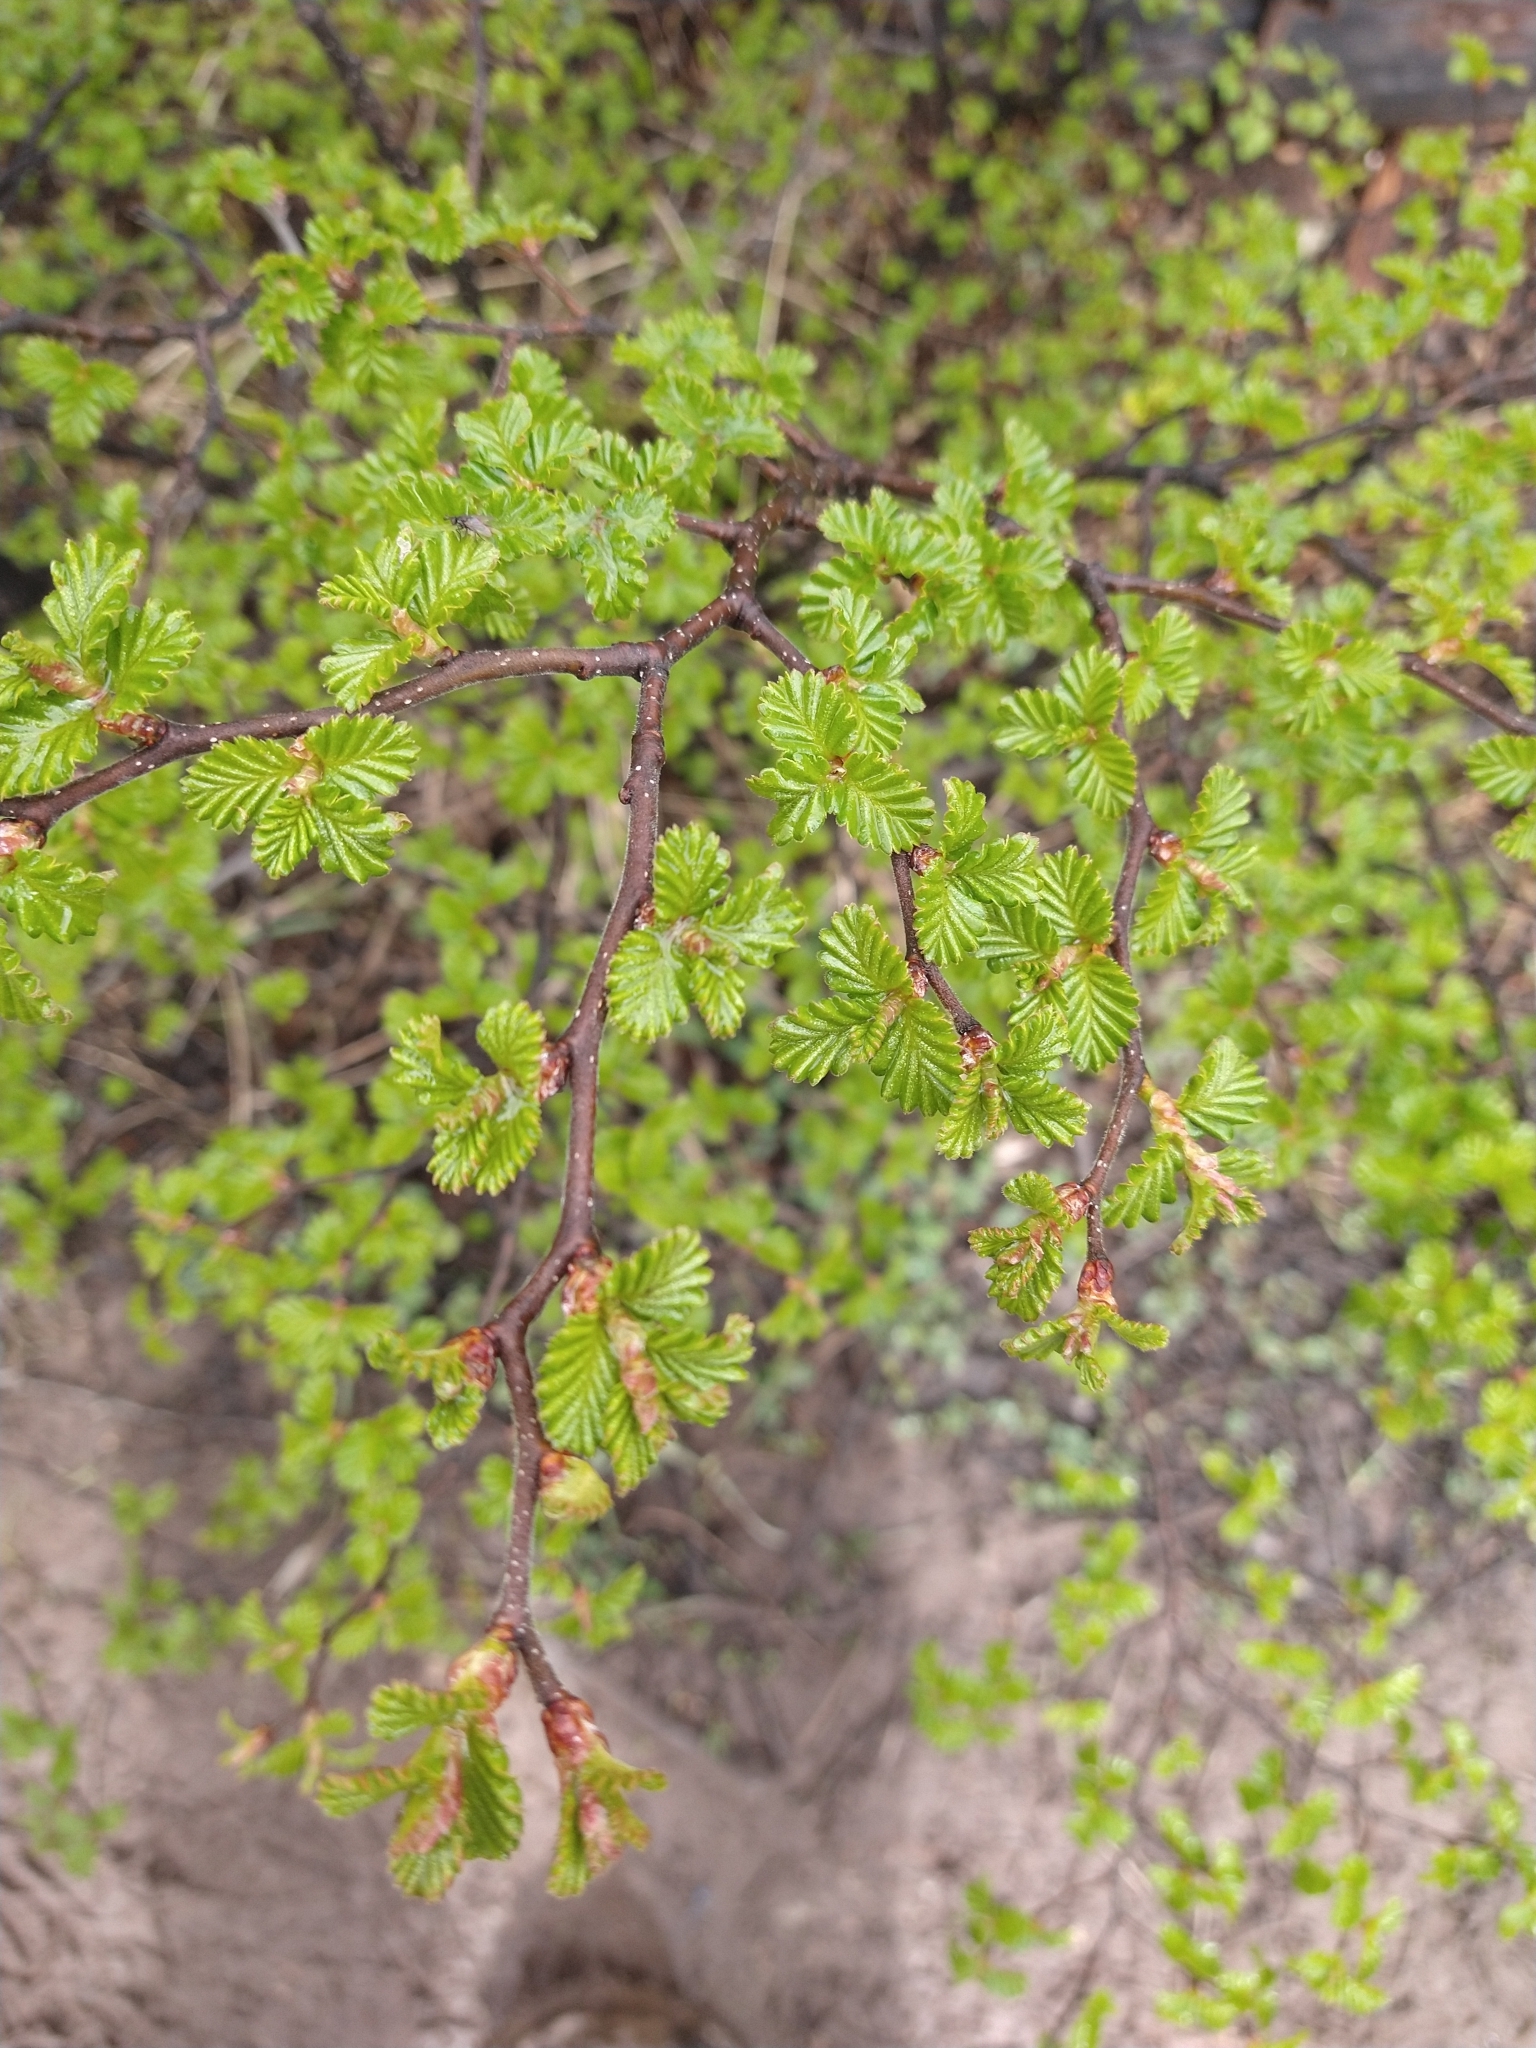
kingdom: Plantae
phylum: Tracheophyta
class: Magnoliopsida
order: Fagales
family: Nothofagaceae
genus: Nothofagus
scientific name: Nothofagus pumilio
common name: Lenga beech
